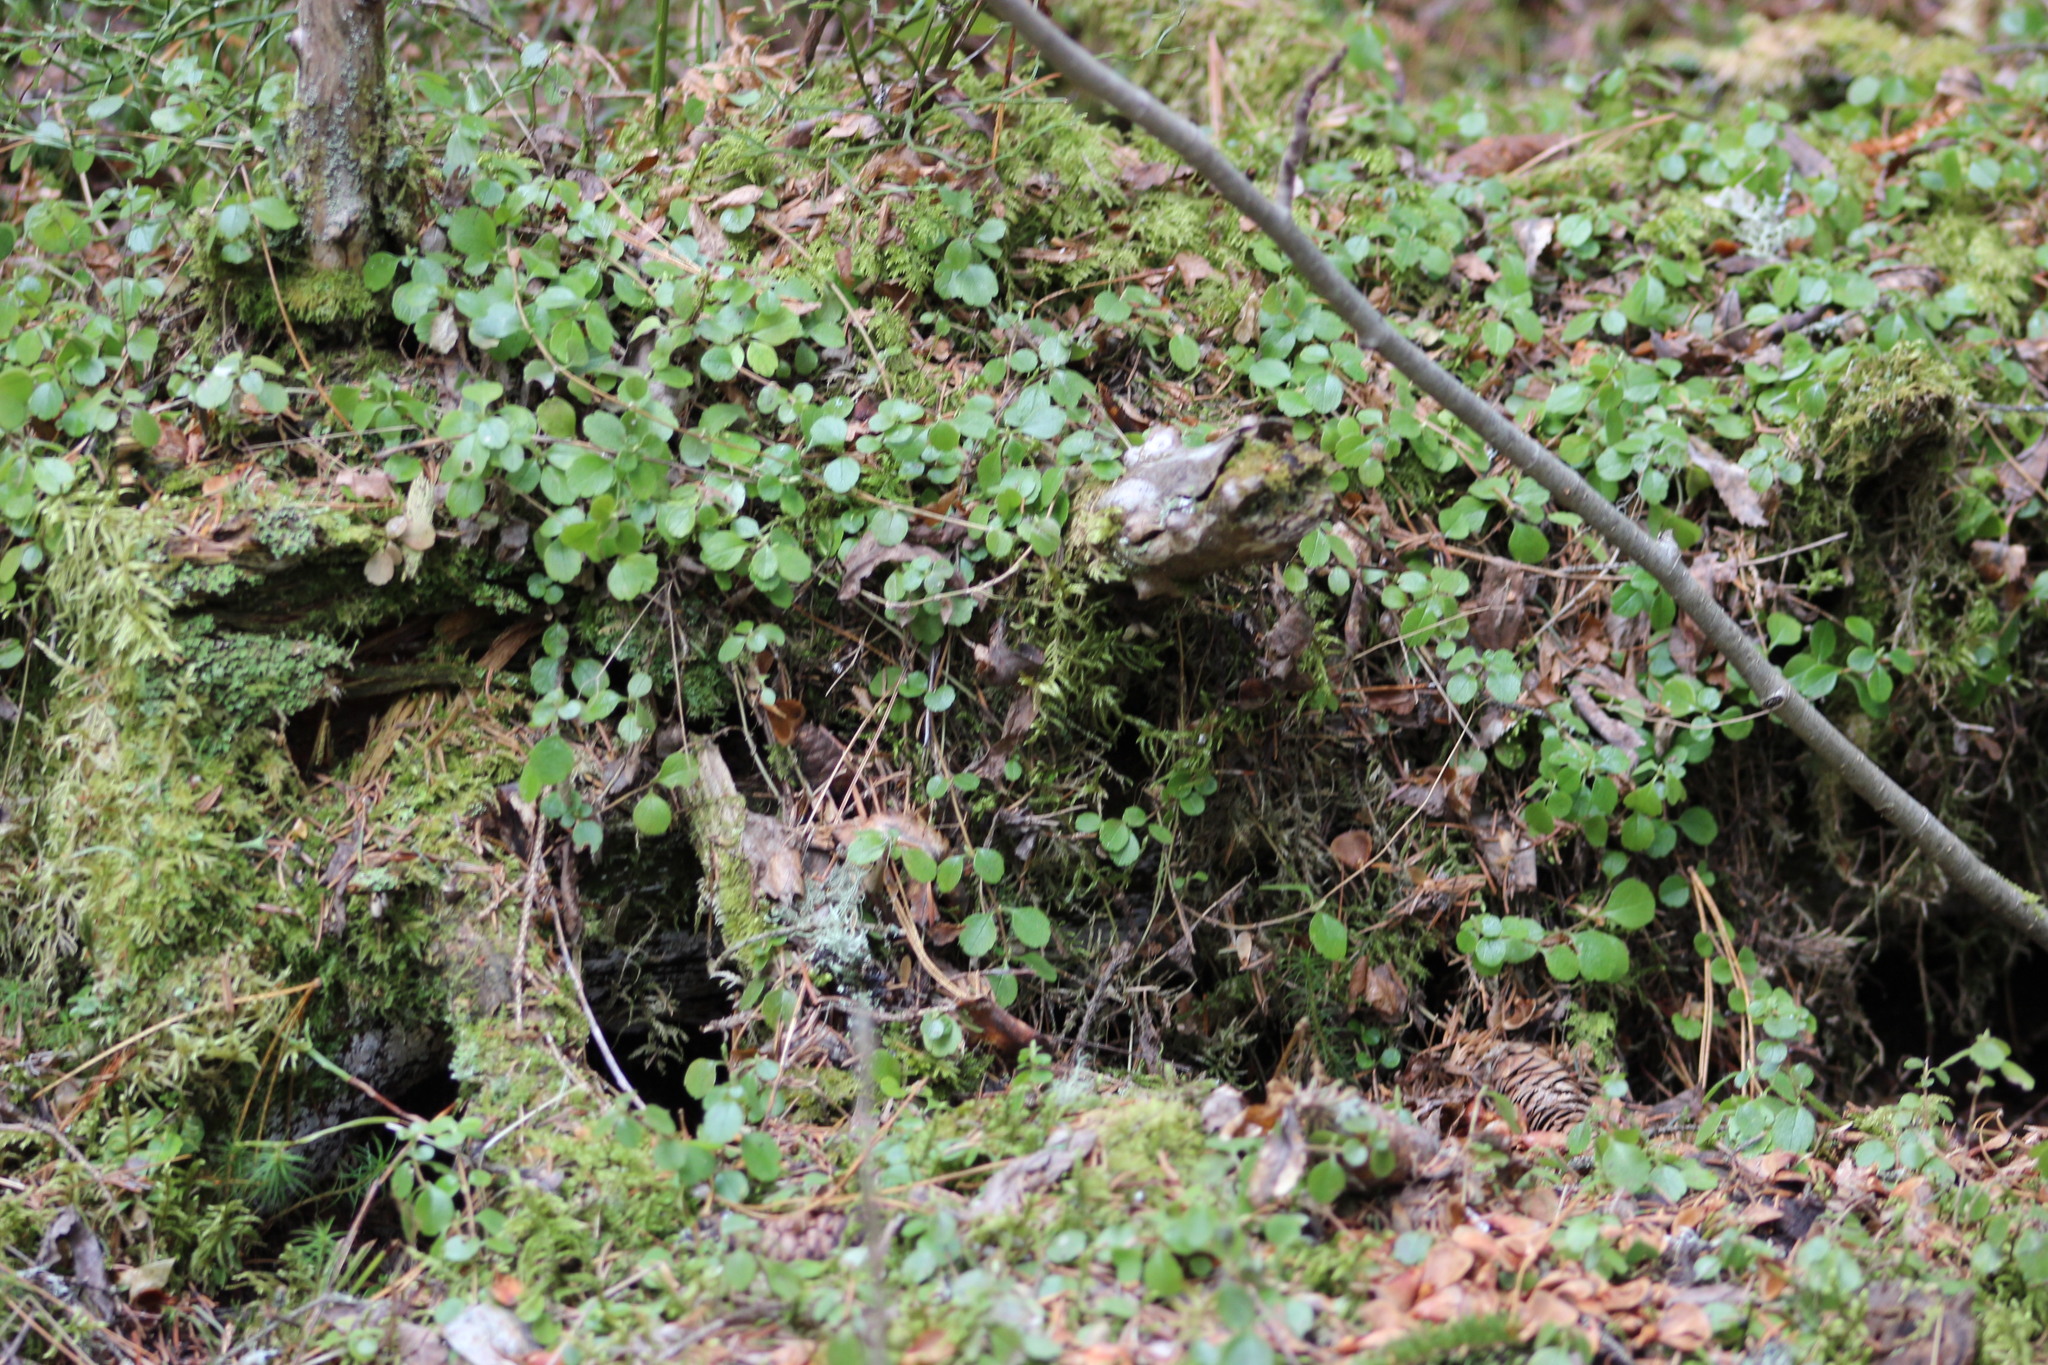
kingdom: Plantae
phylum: Tracheophyta
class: Magnoliopsida
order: Dipsacales
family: Caprifoliaceae
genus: Linnaea
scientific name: Linnaea borealis
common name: Twinflower
